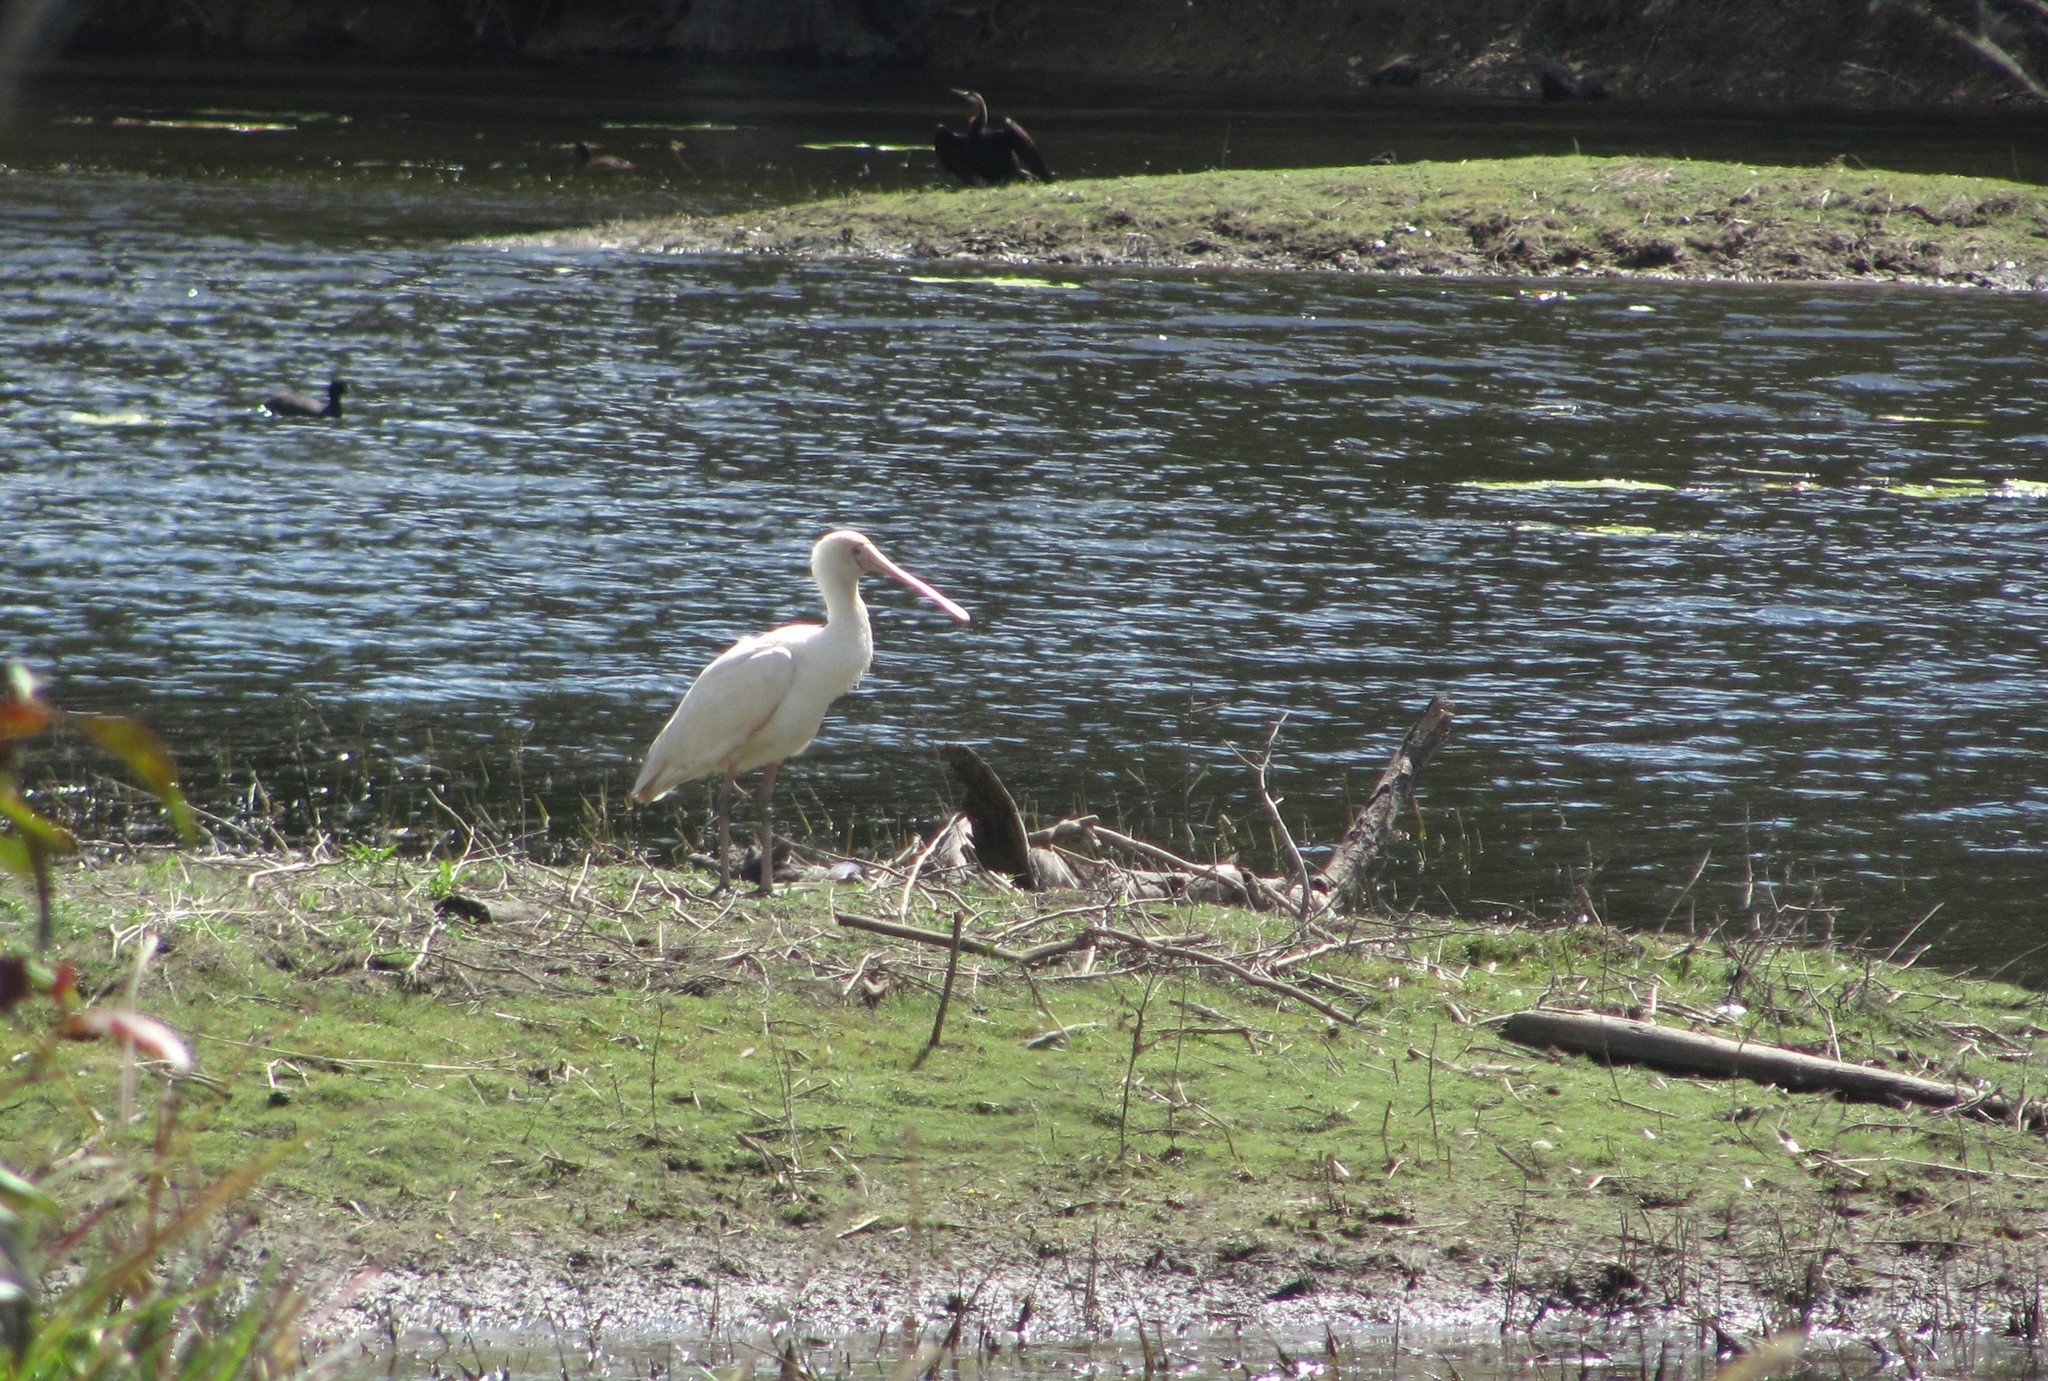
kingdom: Animalia
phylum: Chordata
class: Aves
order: Pelecaniformes
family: Threskiornithidae
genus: Platalea
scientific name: Platalea flavipes
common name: Yellow-billed spoonbill
